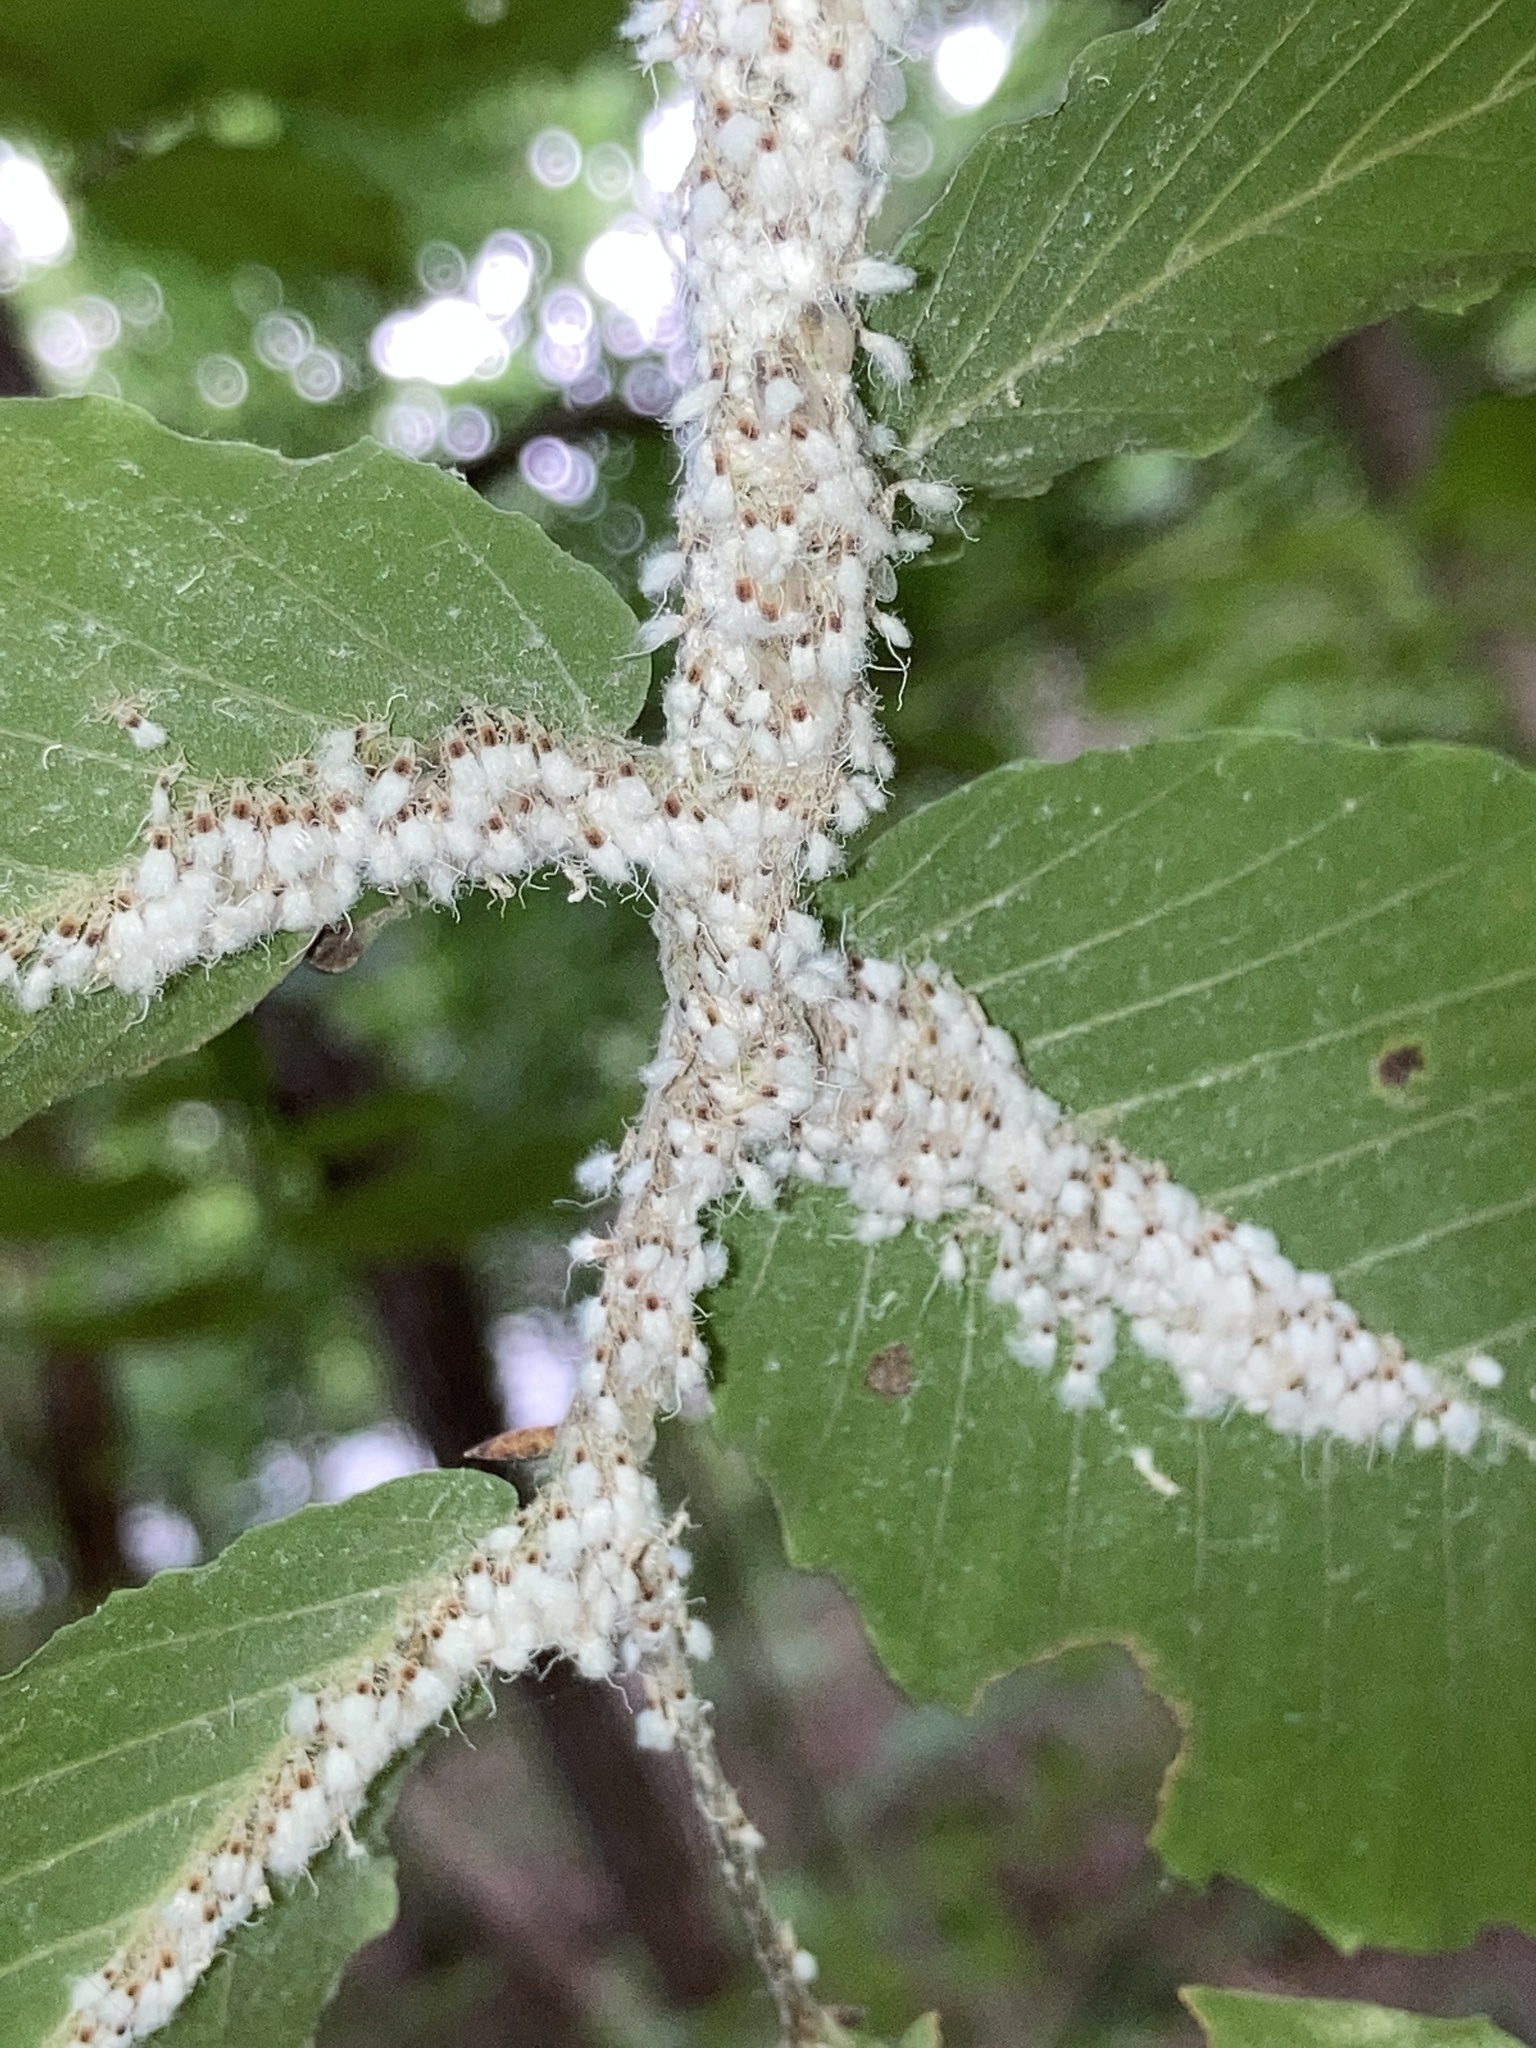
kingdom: Animalia
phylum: Arthropoda
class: Insecta
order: Hemiptera
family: Aphididae
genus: Grylloprociphilus
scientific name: Grylloprociphilus imbricator
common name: Beech blight aphid
